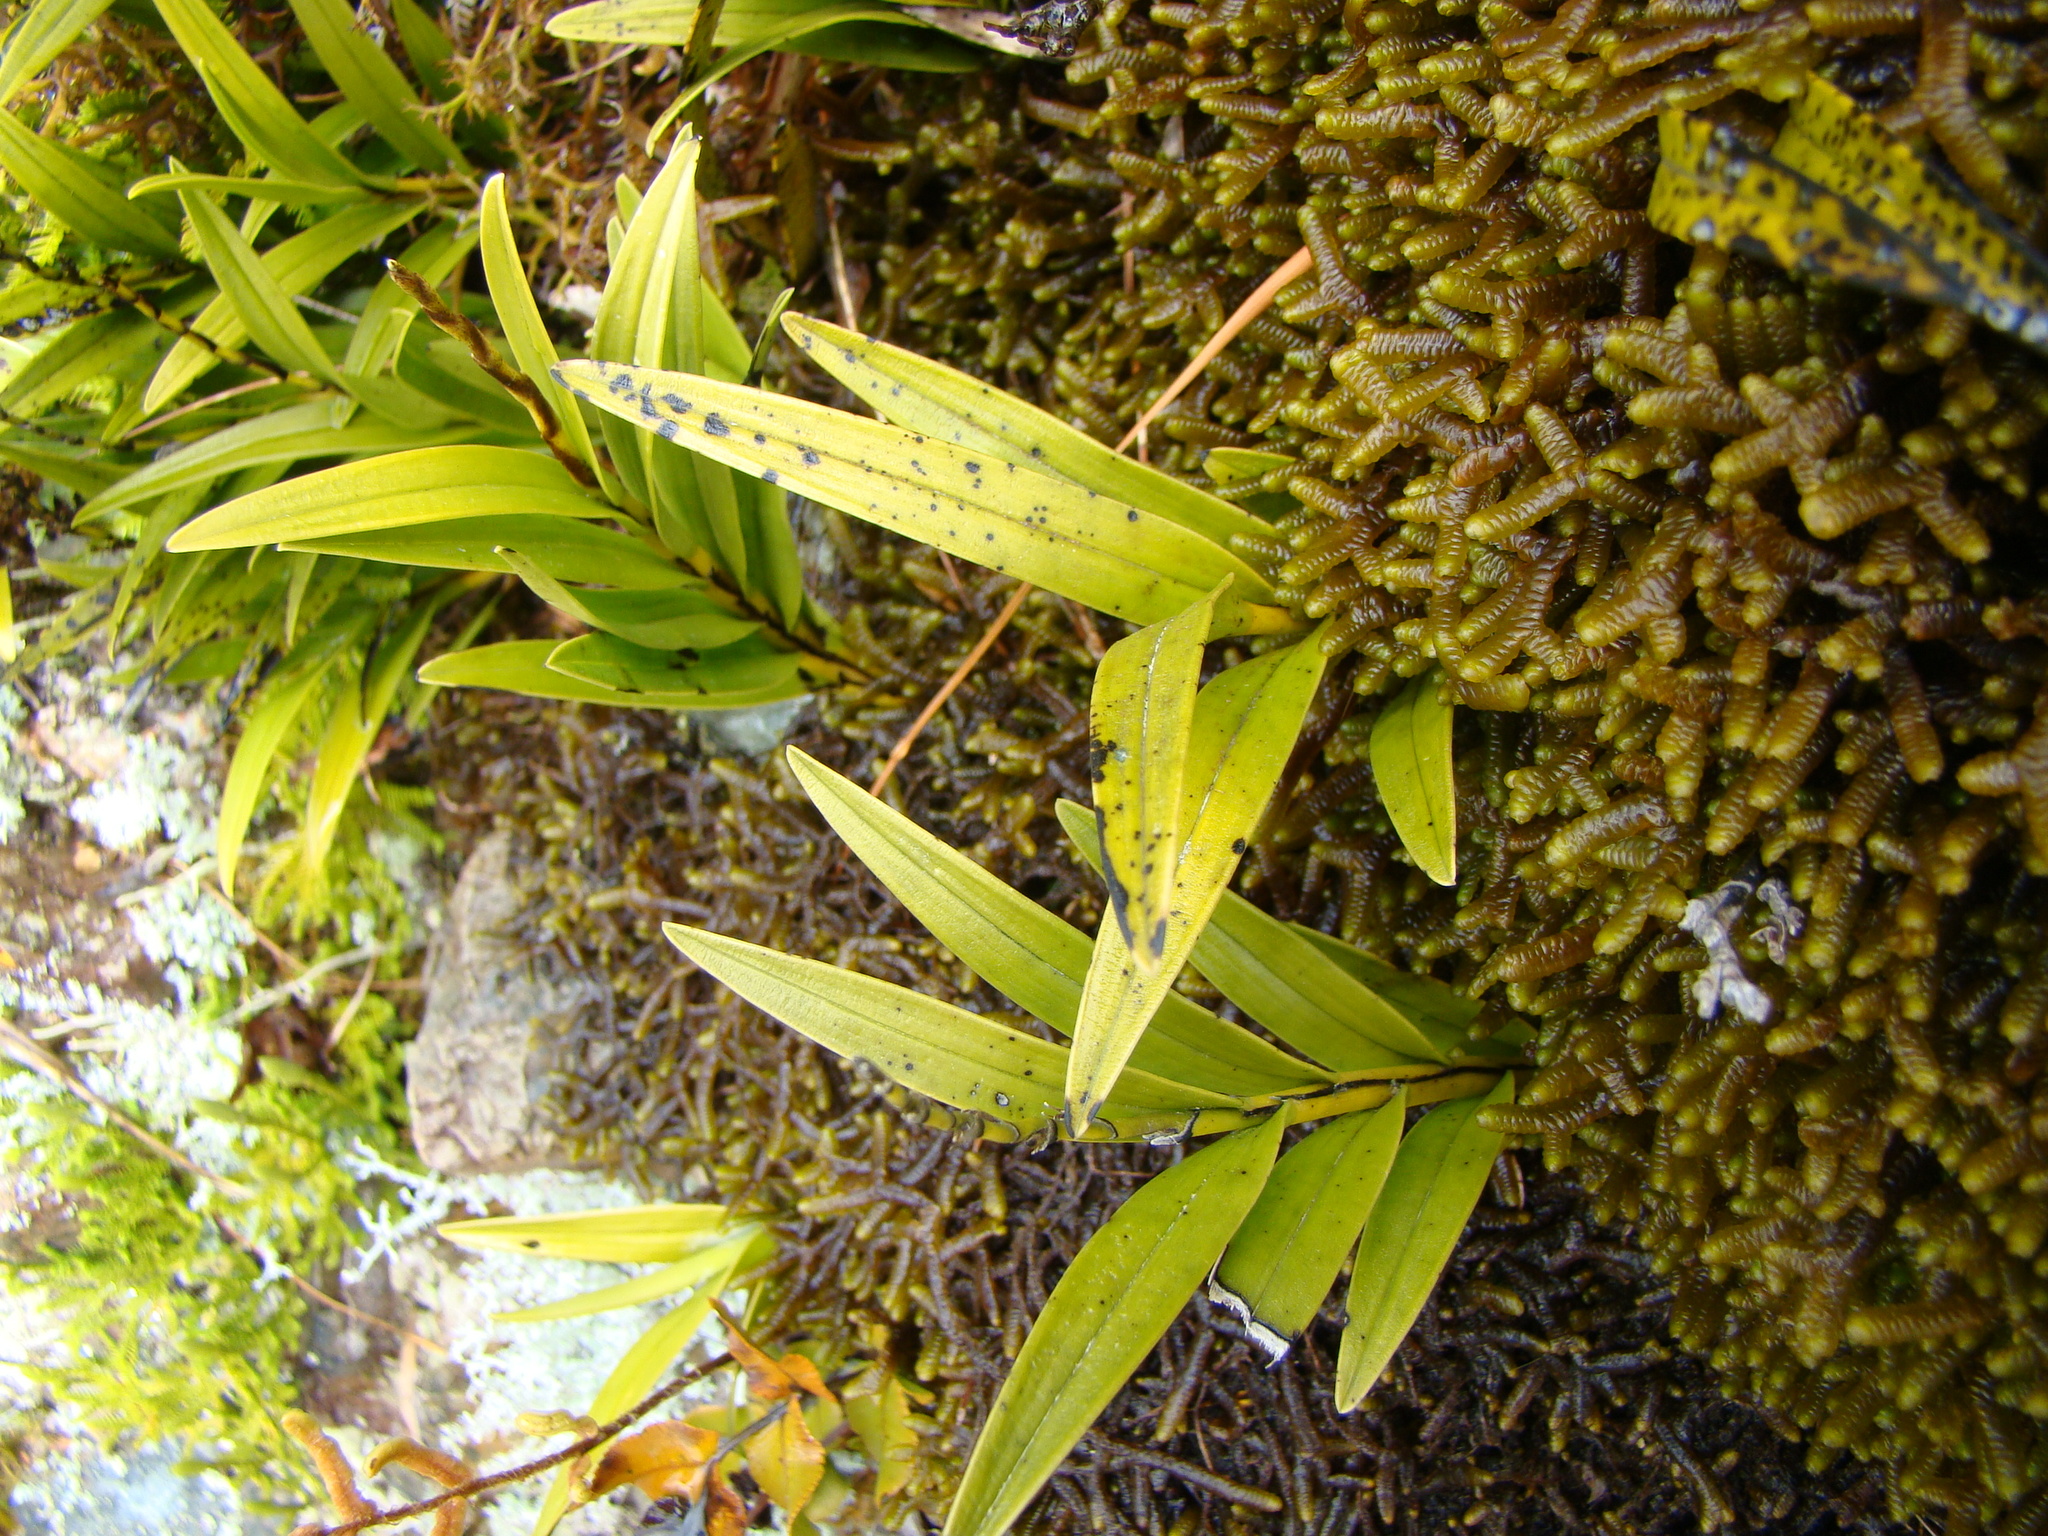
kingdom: Plantae
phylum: Tracheophyta
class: Liliopsida
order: Asparagales
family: Orchidaceae
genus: Earina
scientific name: Earina autumnalis
